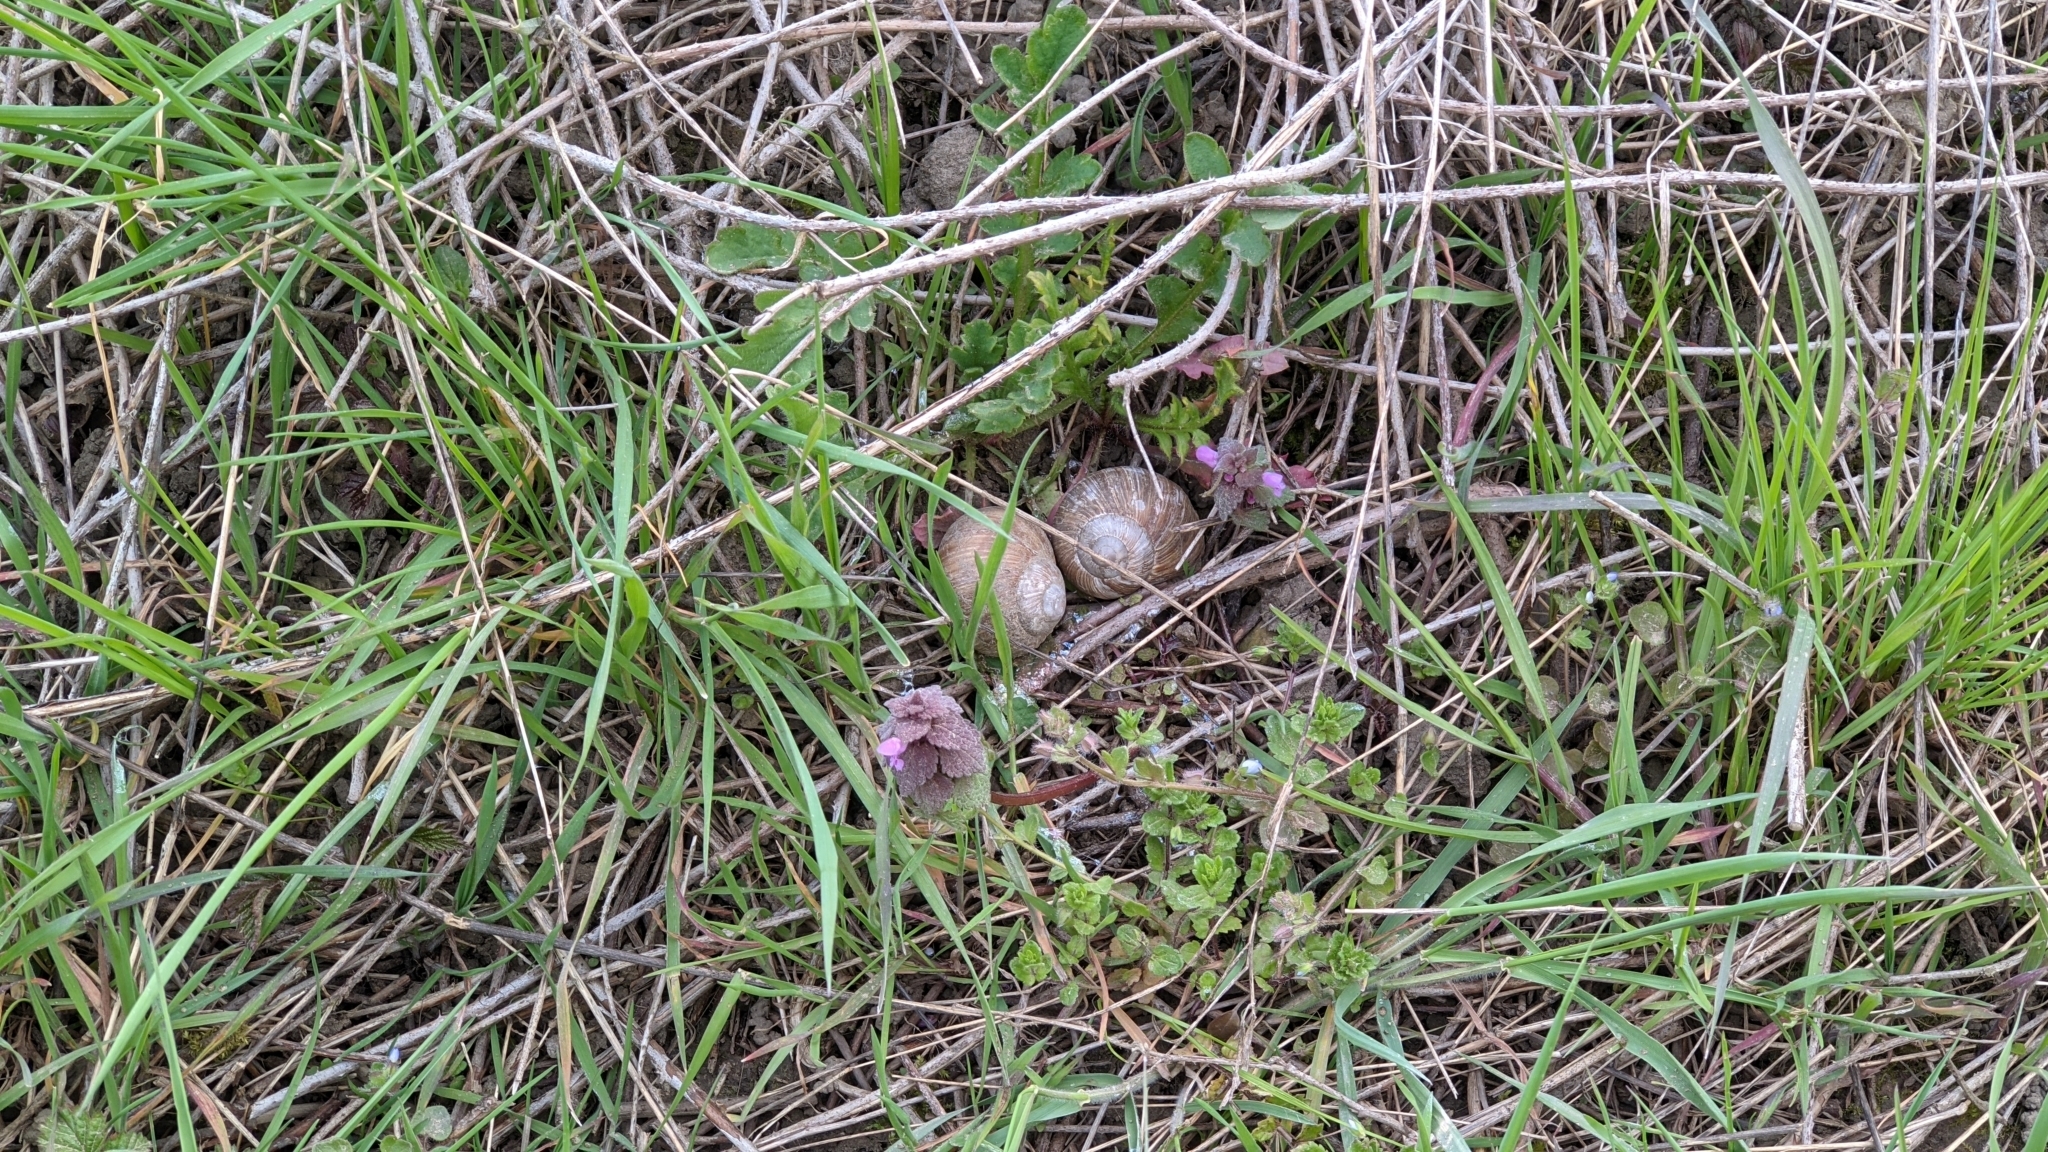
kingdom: Animalia
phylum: Mollusca
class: Gastropoda
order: Stylommatophora
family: Helicidae
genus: Helix
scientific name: Helix pomatia
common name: Roman snail
